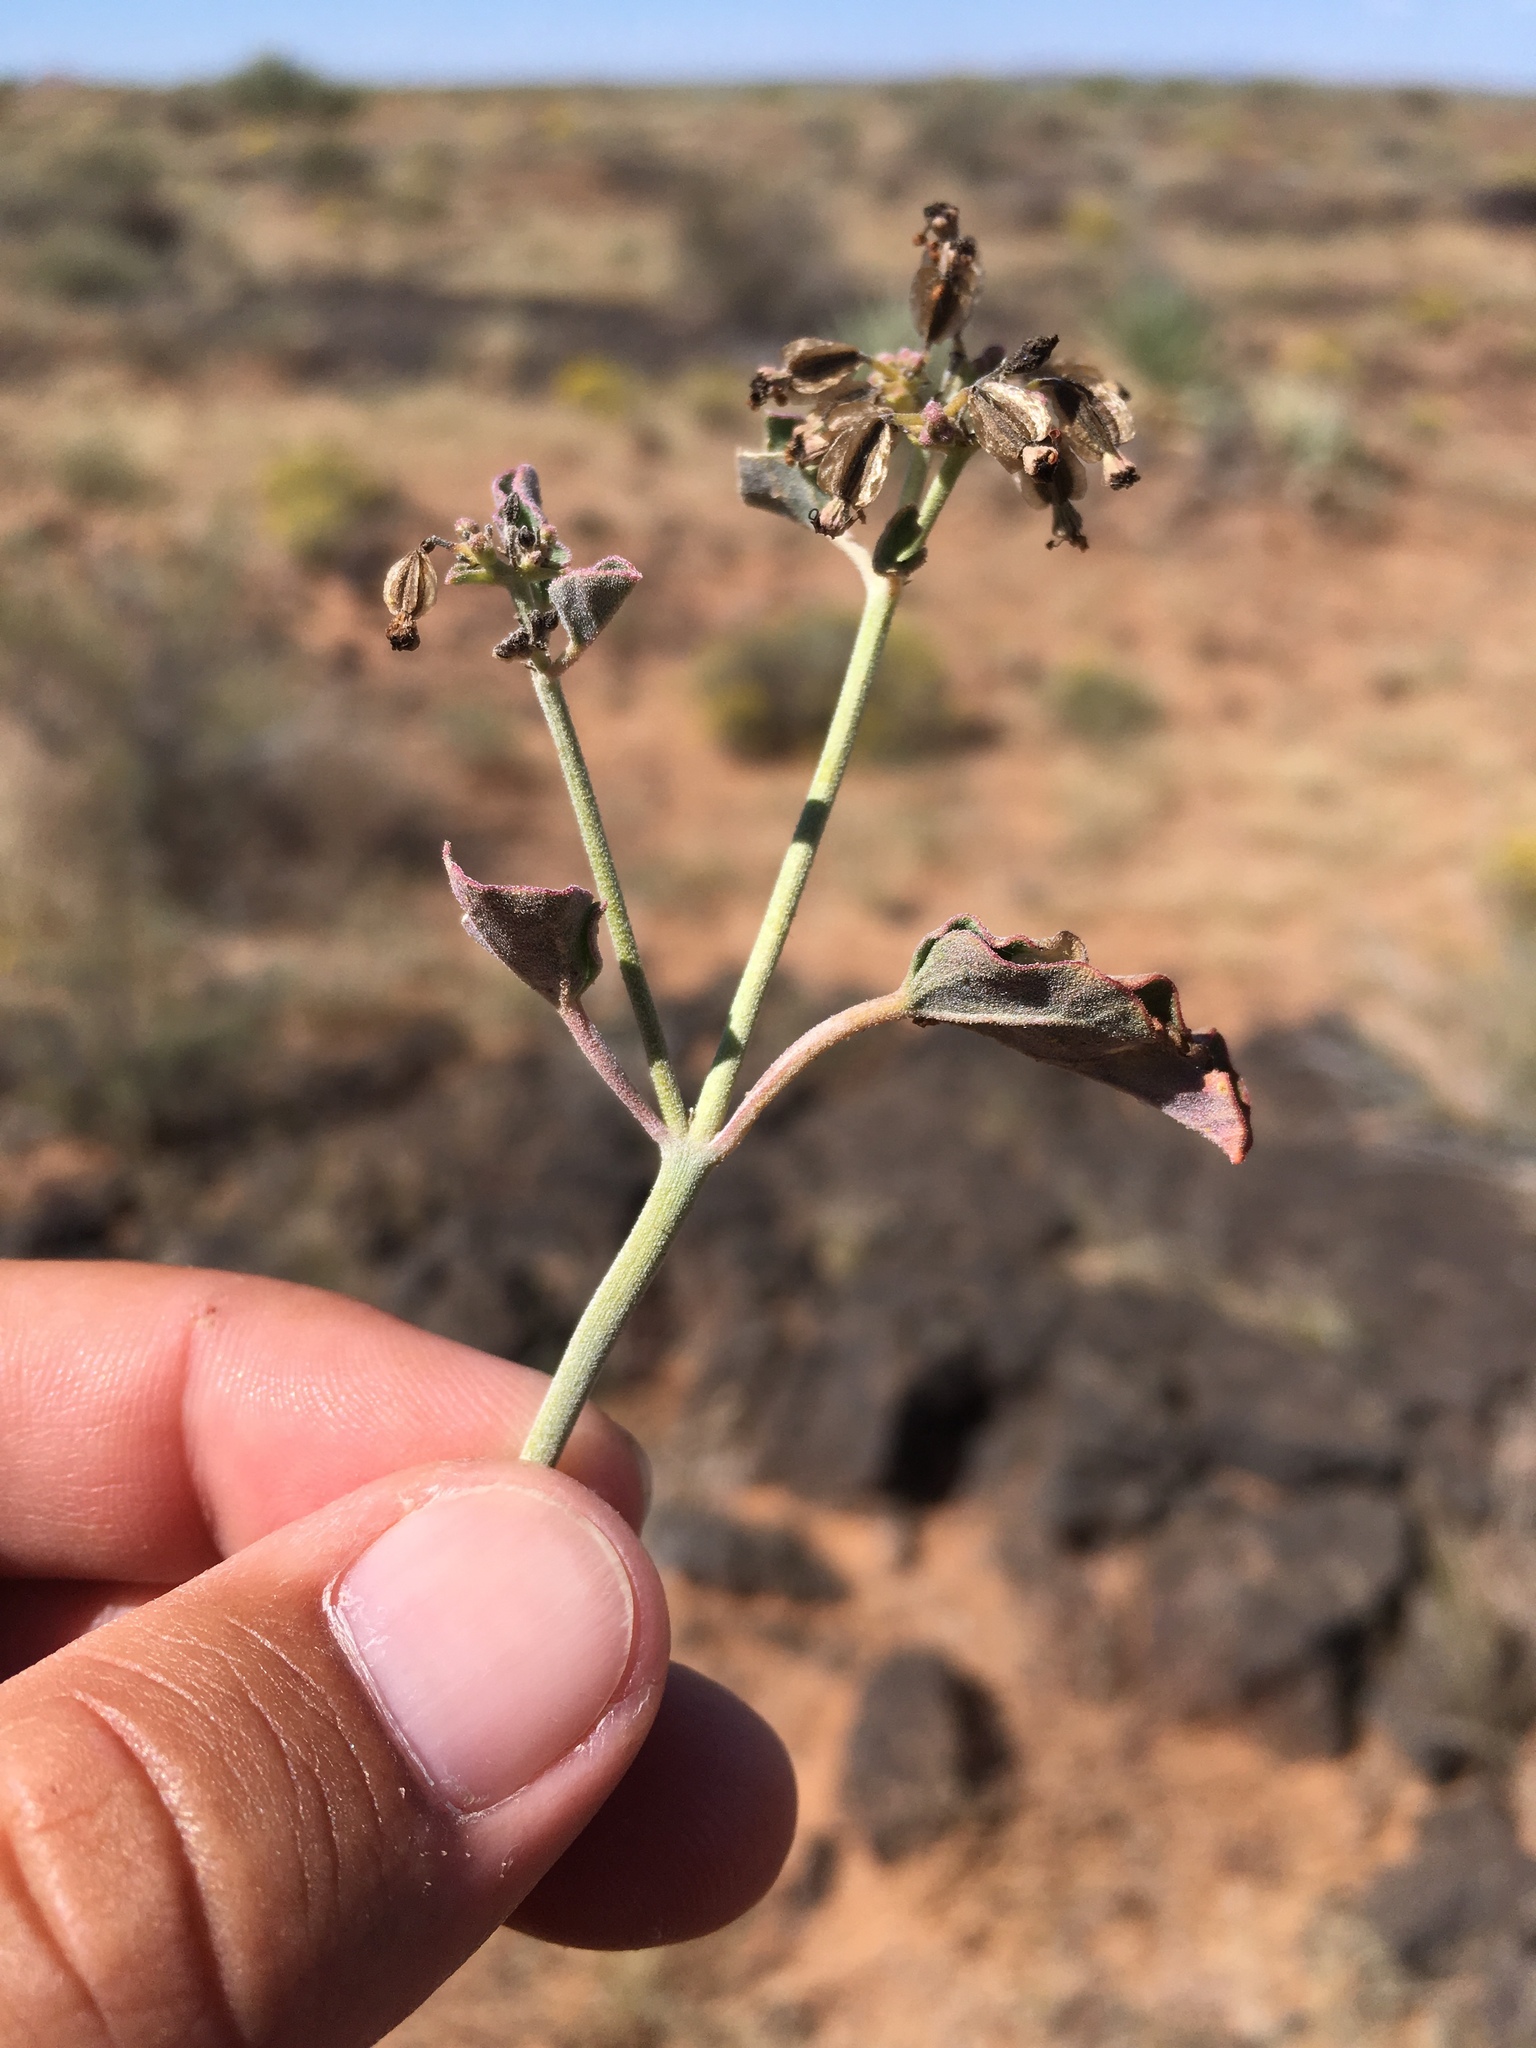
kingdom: Plantae
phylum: Tracheophyta
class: Magnoliopsida
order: Caryophyllales
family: Nyctaginaceae
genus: Acleisanthes
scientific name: Acleisanthes chenopodioides
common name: Goosefoot moonpod
